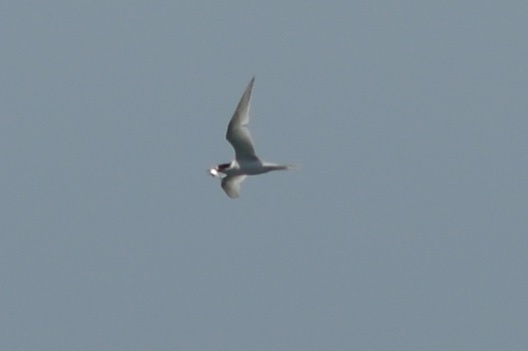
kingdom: Animalia
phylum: Chordata
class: Aves
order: Charadriiformes
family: Laridae
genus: Sterna
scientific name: Sterna striata
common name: White-fronted tern
